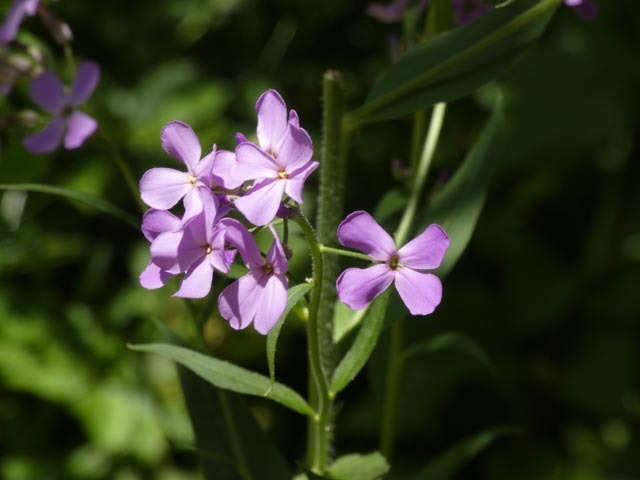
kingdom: Plantae
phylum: Tracheophyta
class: Magnoliopsida
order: Brassicales
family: Brassicaceae
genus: Hesperis
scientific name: Hesperis matronalis
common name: Dame's-violet
